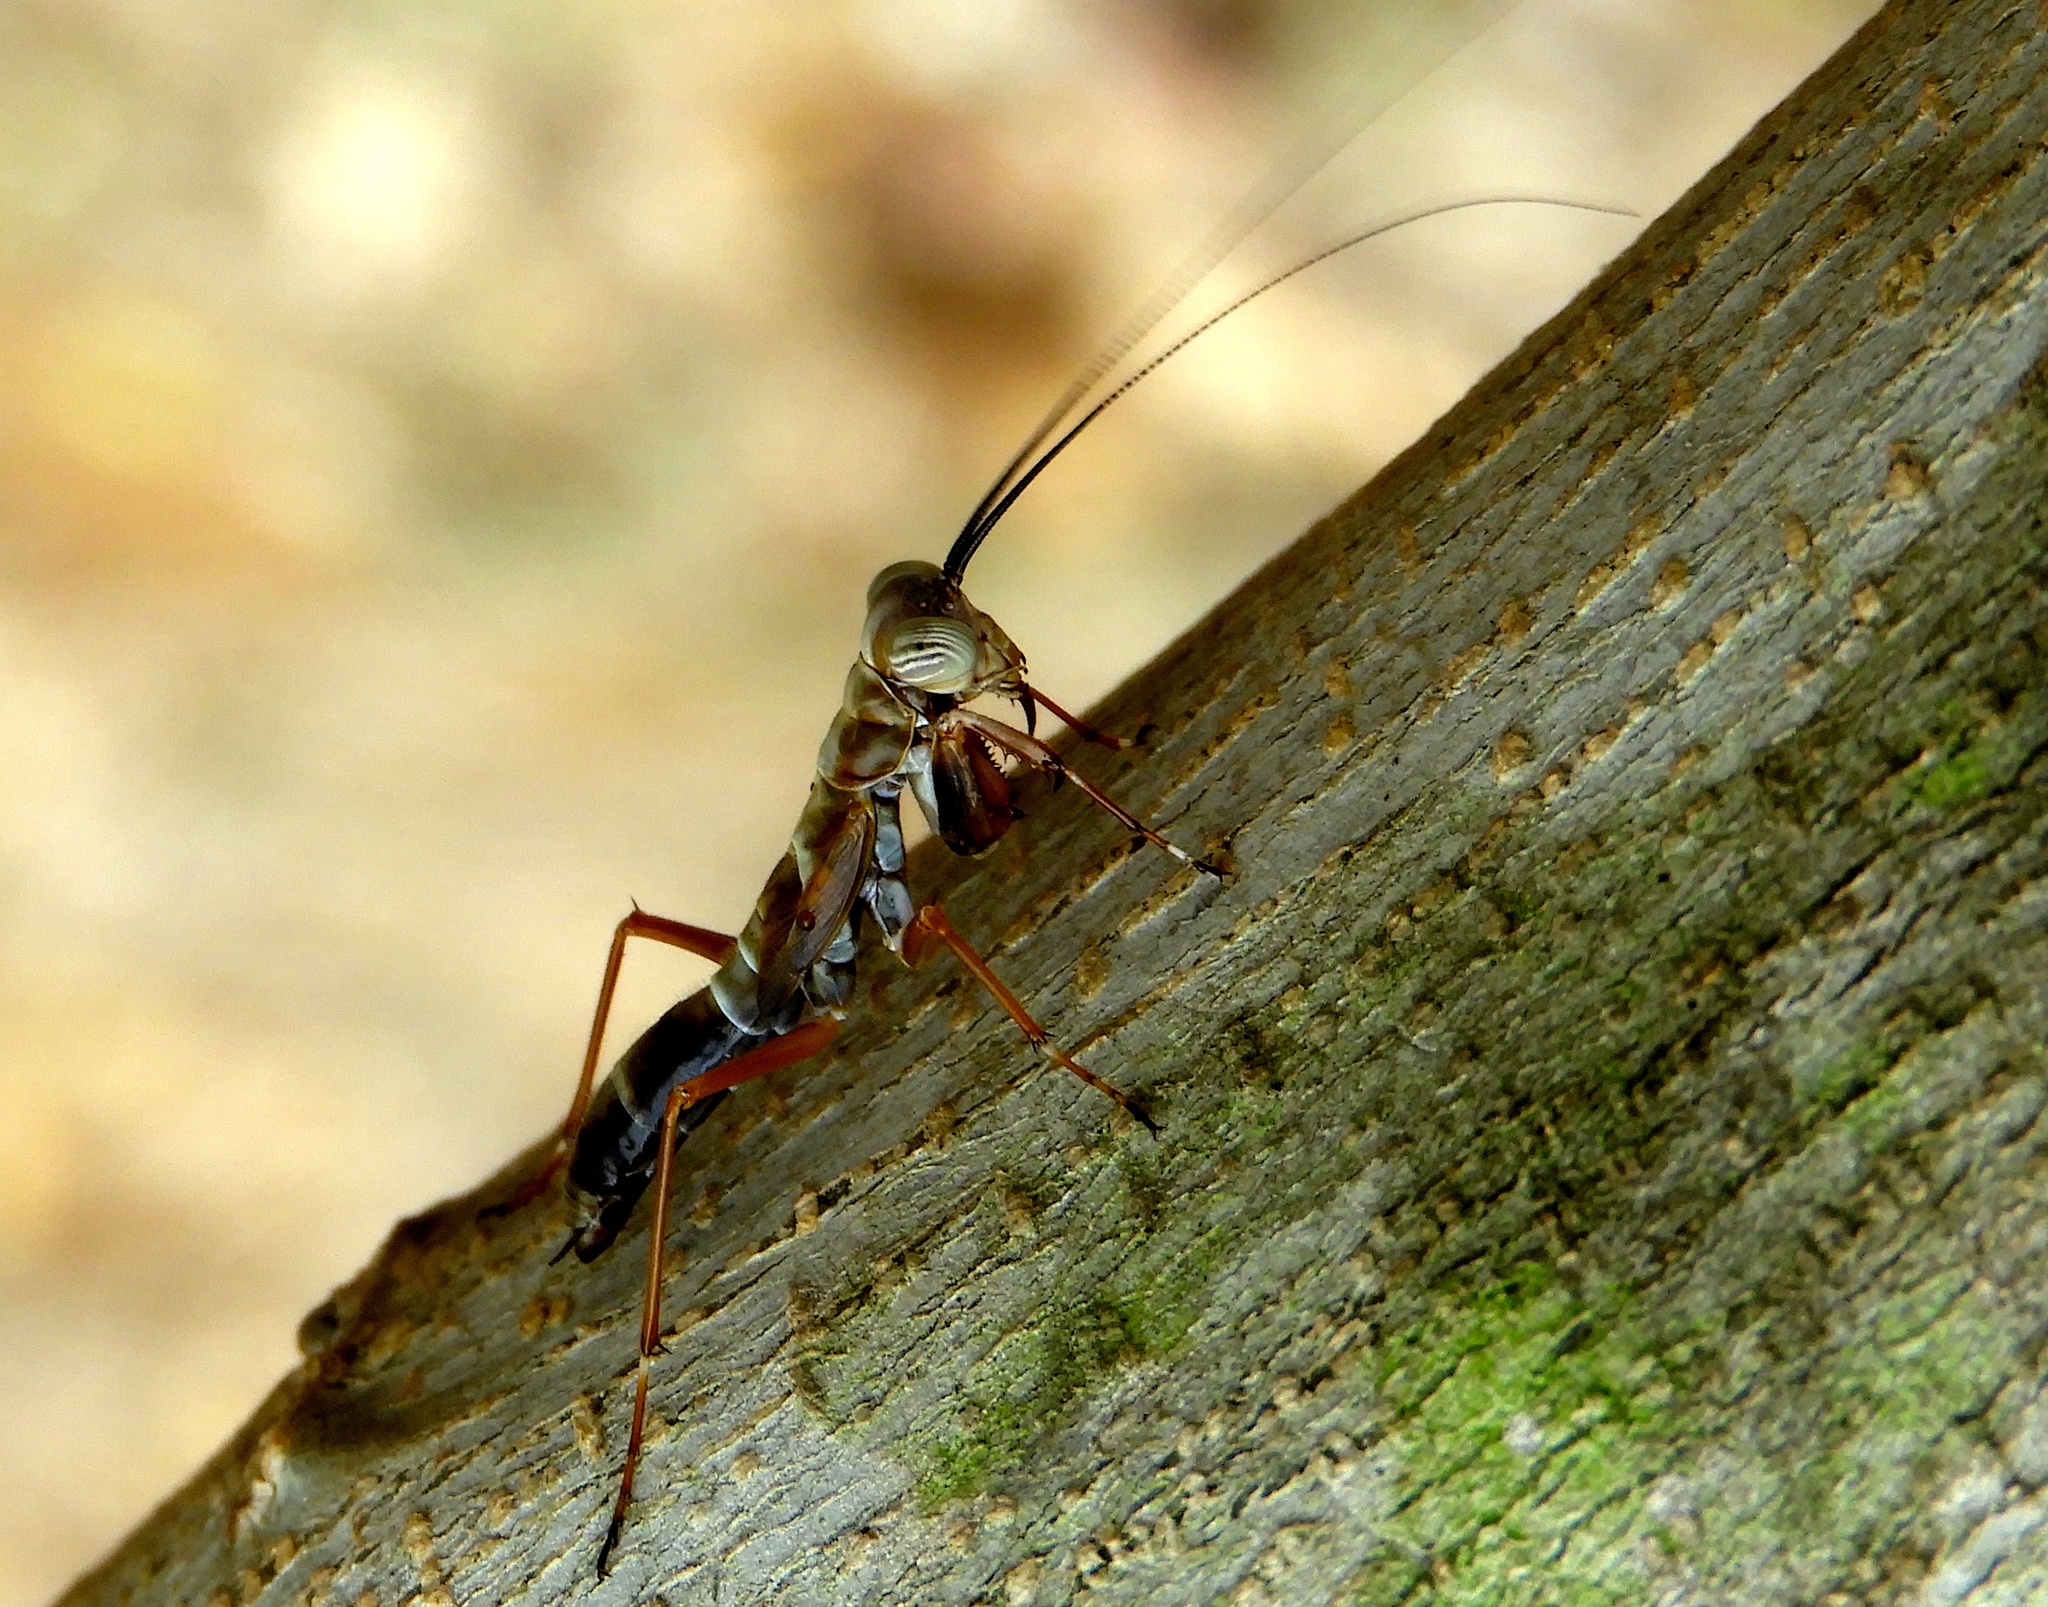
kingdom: Animalia
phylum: Arthropoda
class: Insecta
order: Mantodea
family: Mantoididae
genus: Mantoida
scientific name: Mantoida maya
